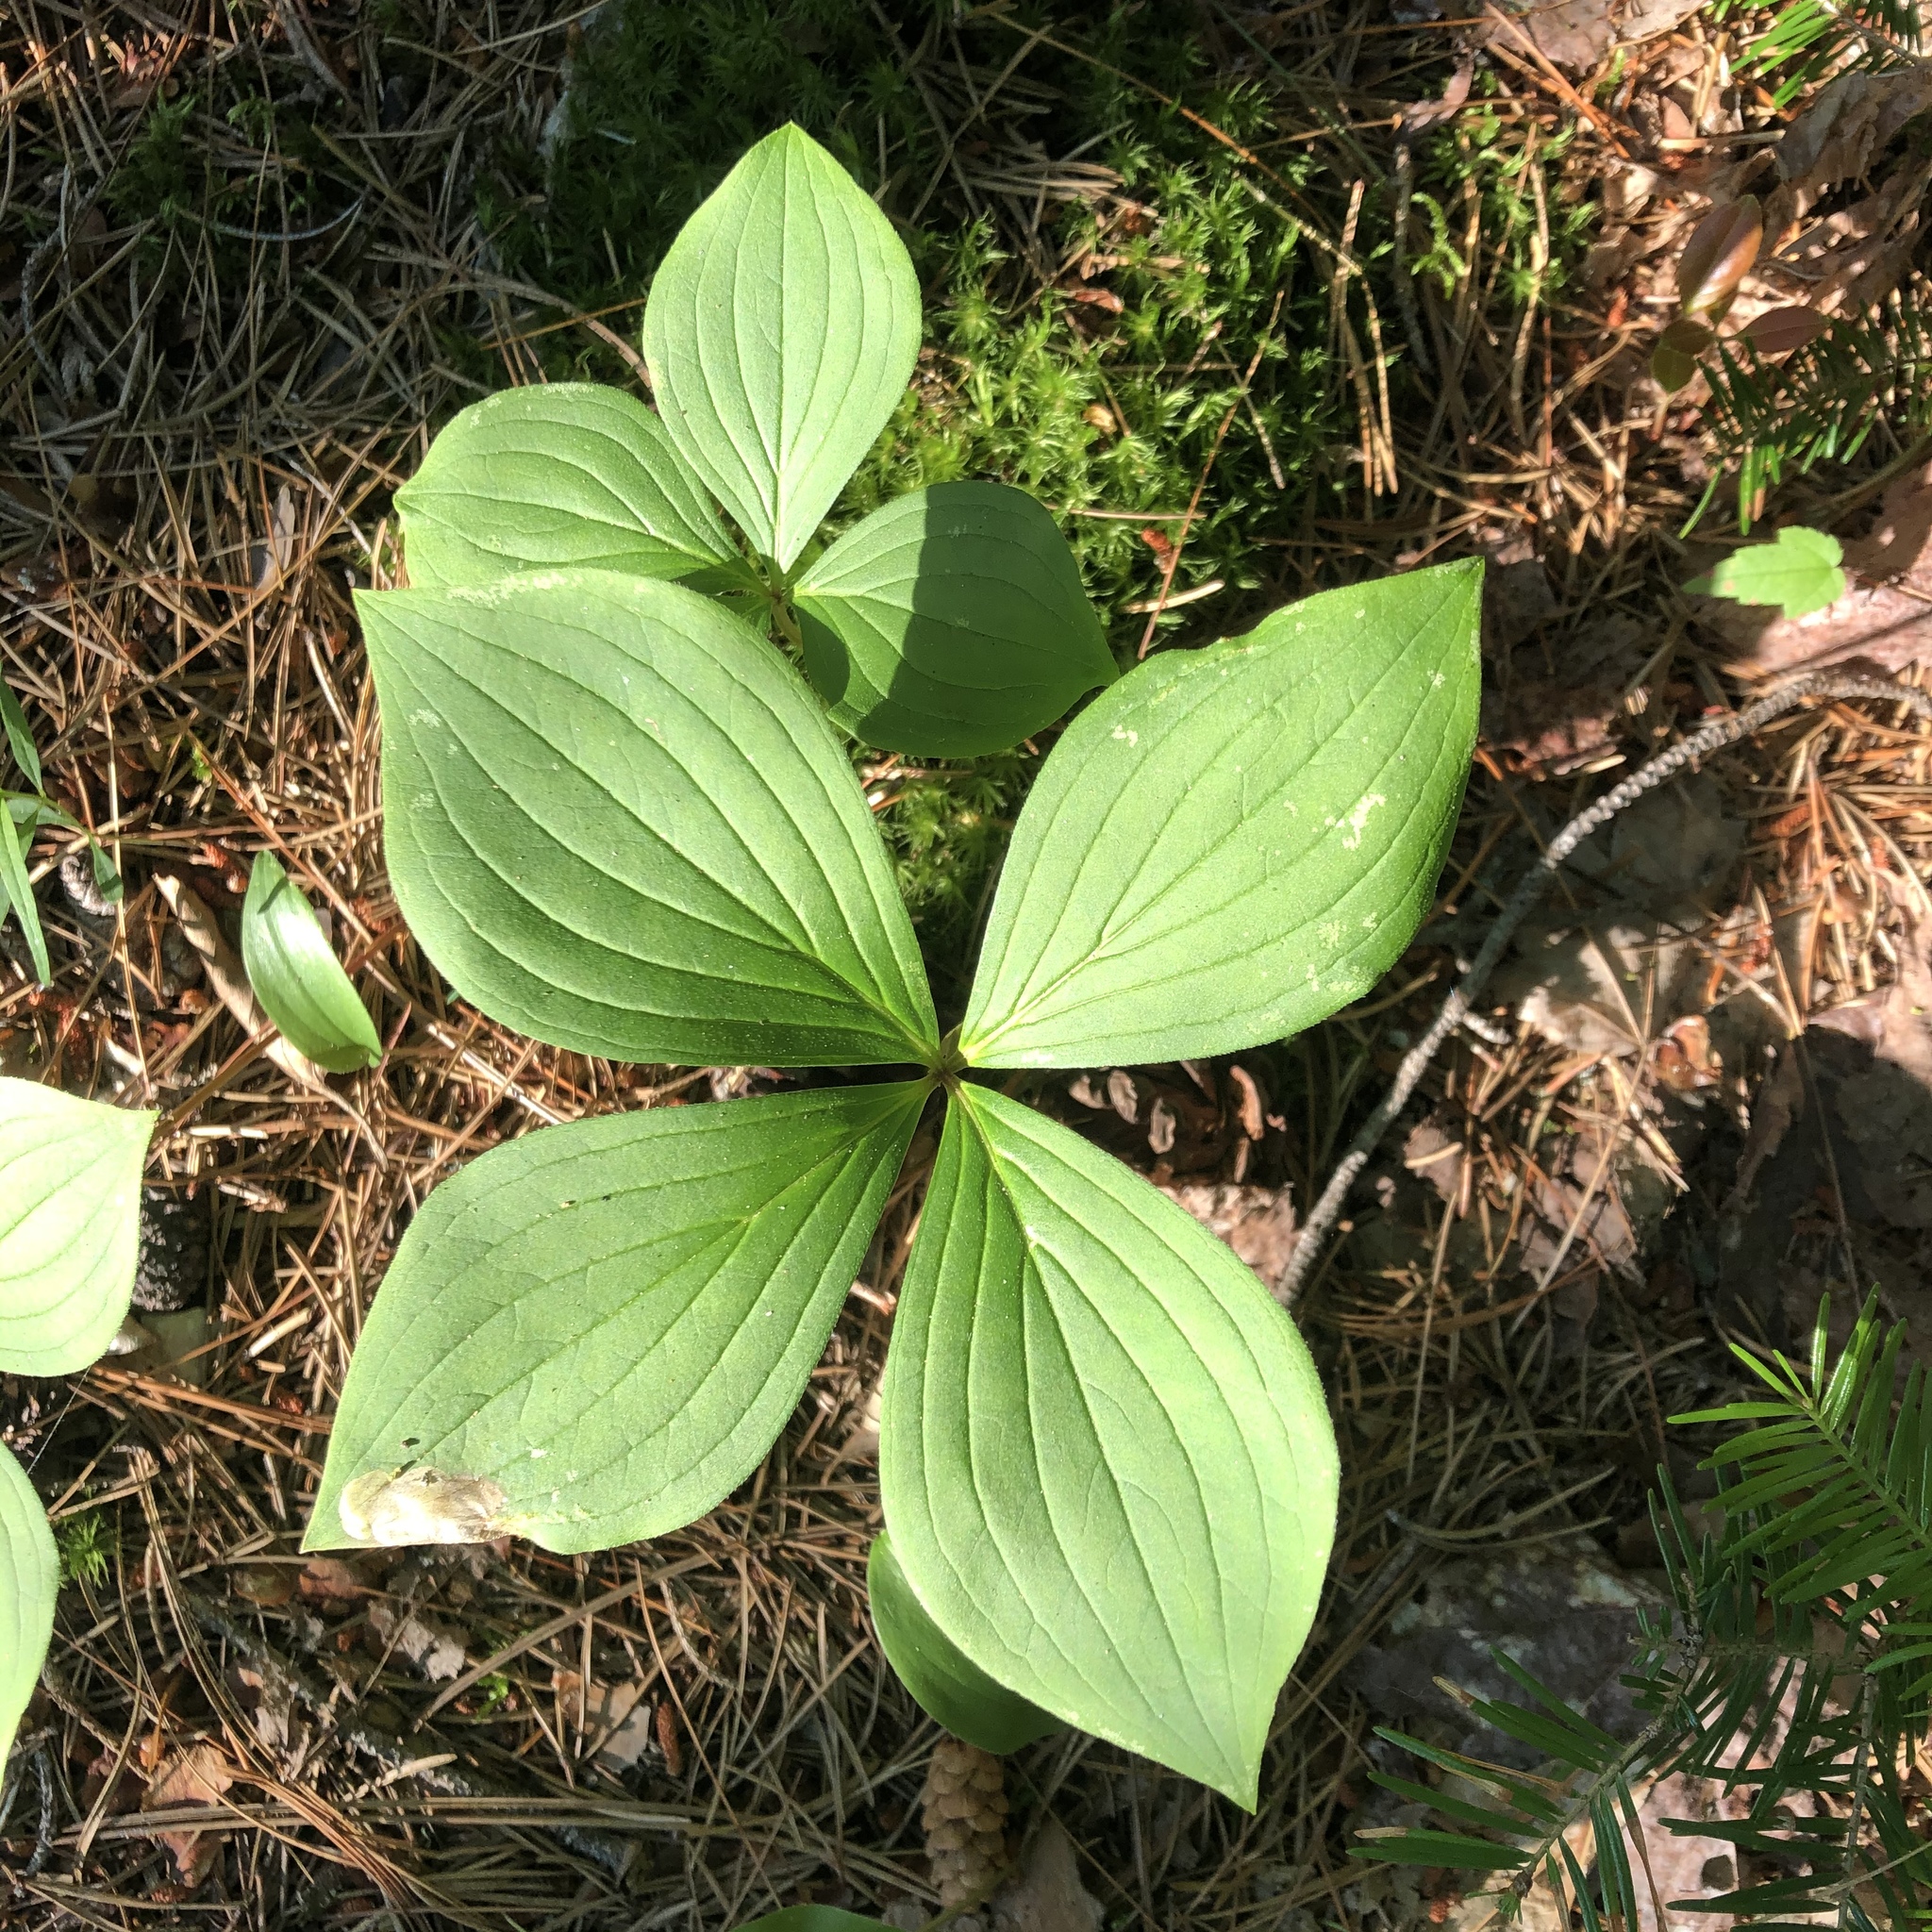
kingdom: Plantae
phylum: Tracheophyta
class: Magnoliopsida
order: Cornales
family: Cornaceae
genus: Cornus
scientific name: Cornus canadensis
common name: Creeping dogwood
